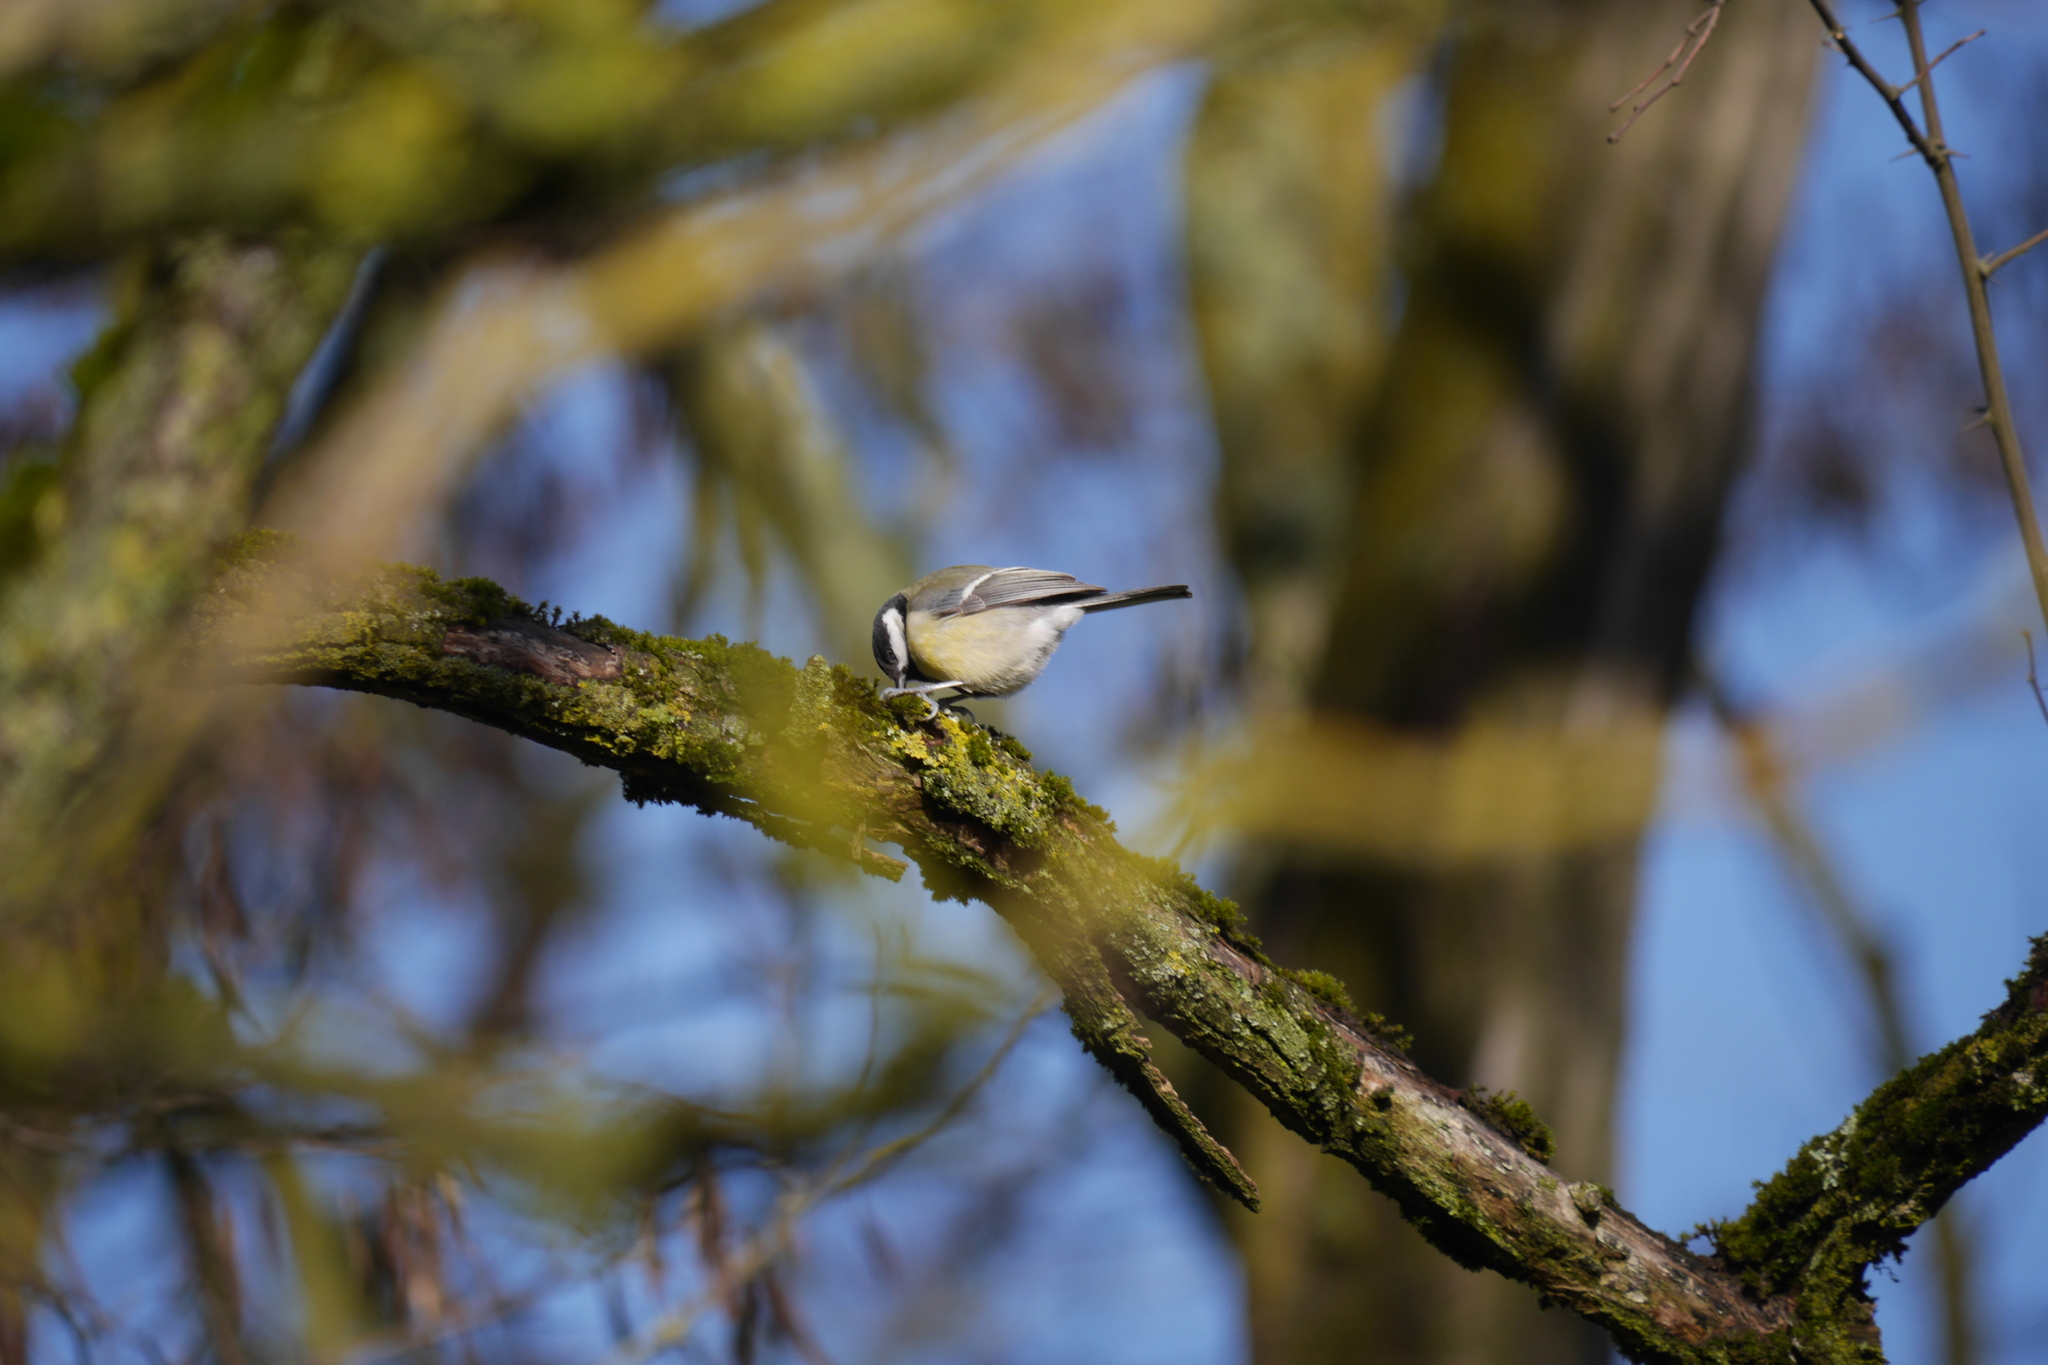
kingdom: Animalia
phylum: Chordata
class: Aves
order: Passeriformes
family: Paridae
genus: Parus
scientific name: Parus major
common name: Great tit
